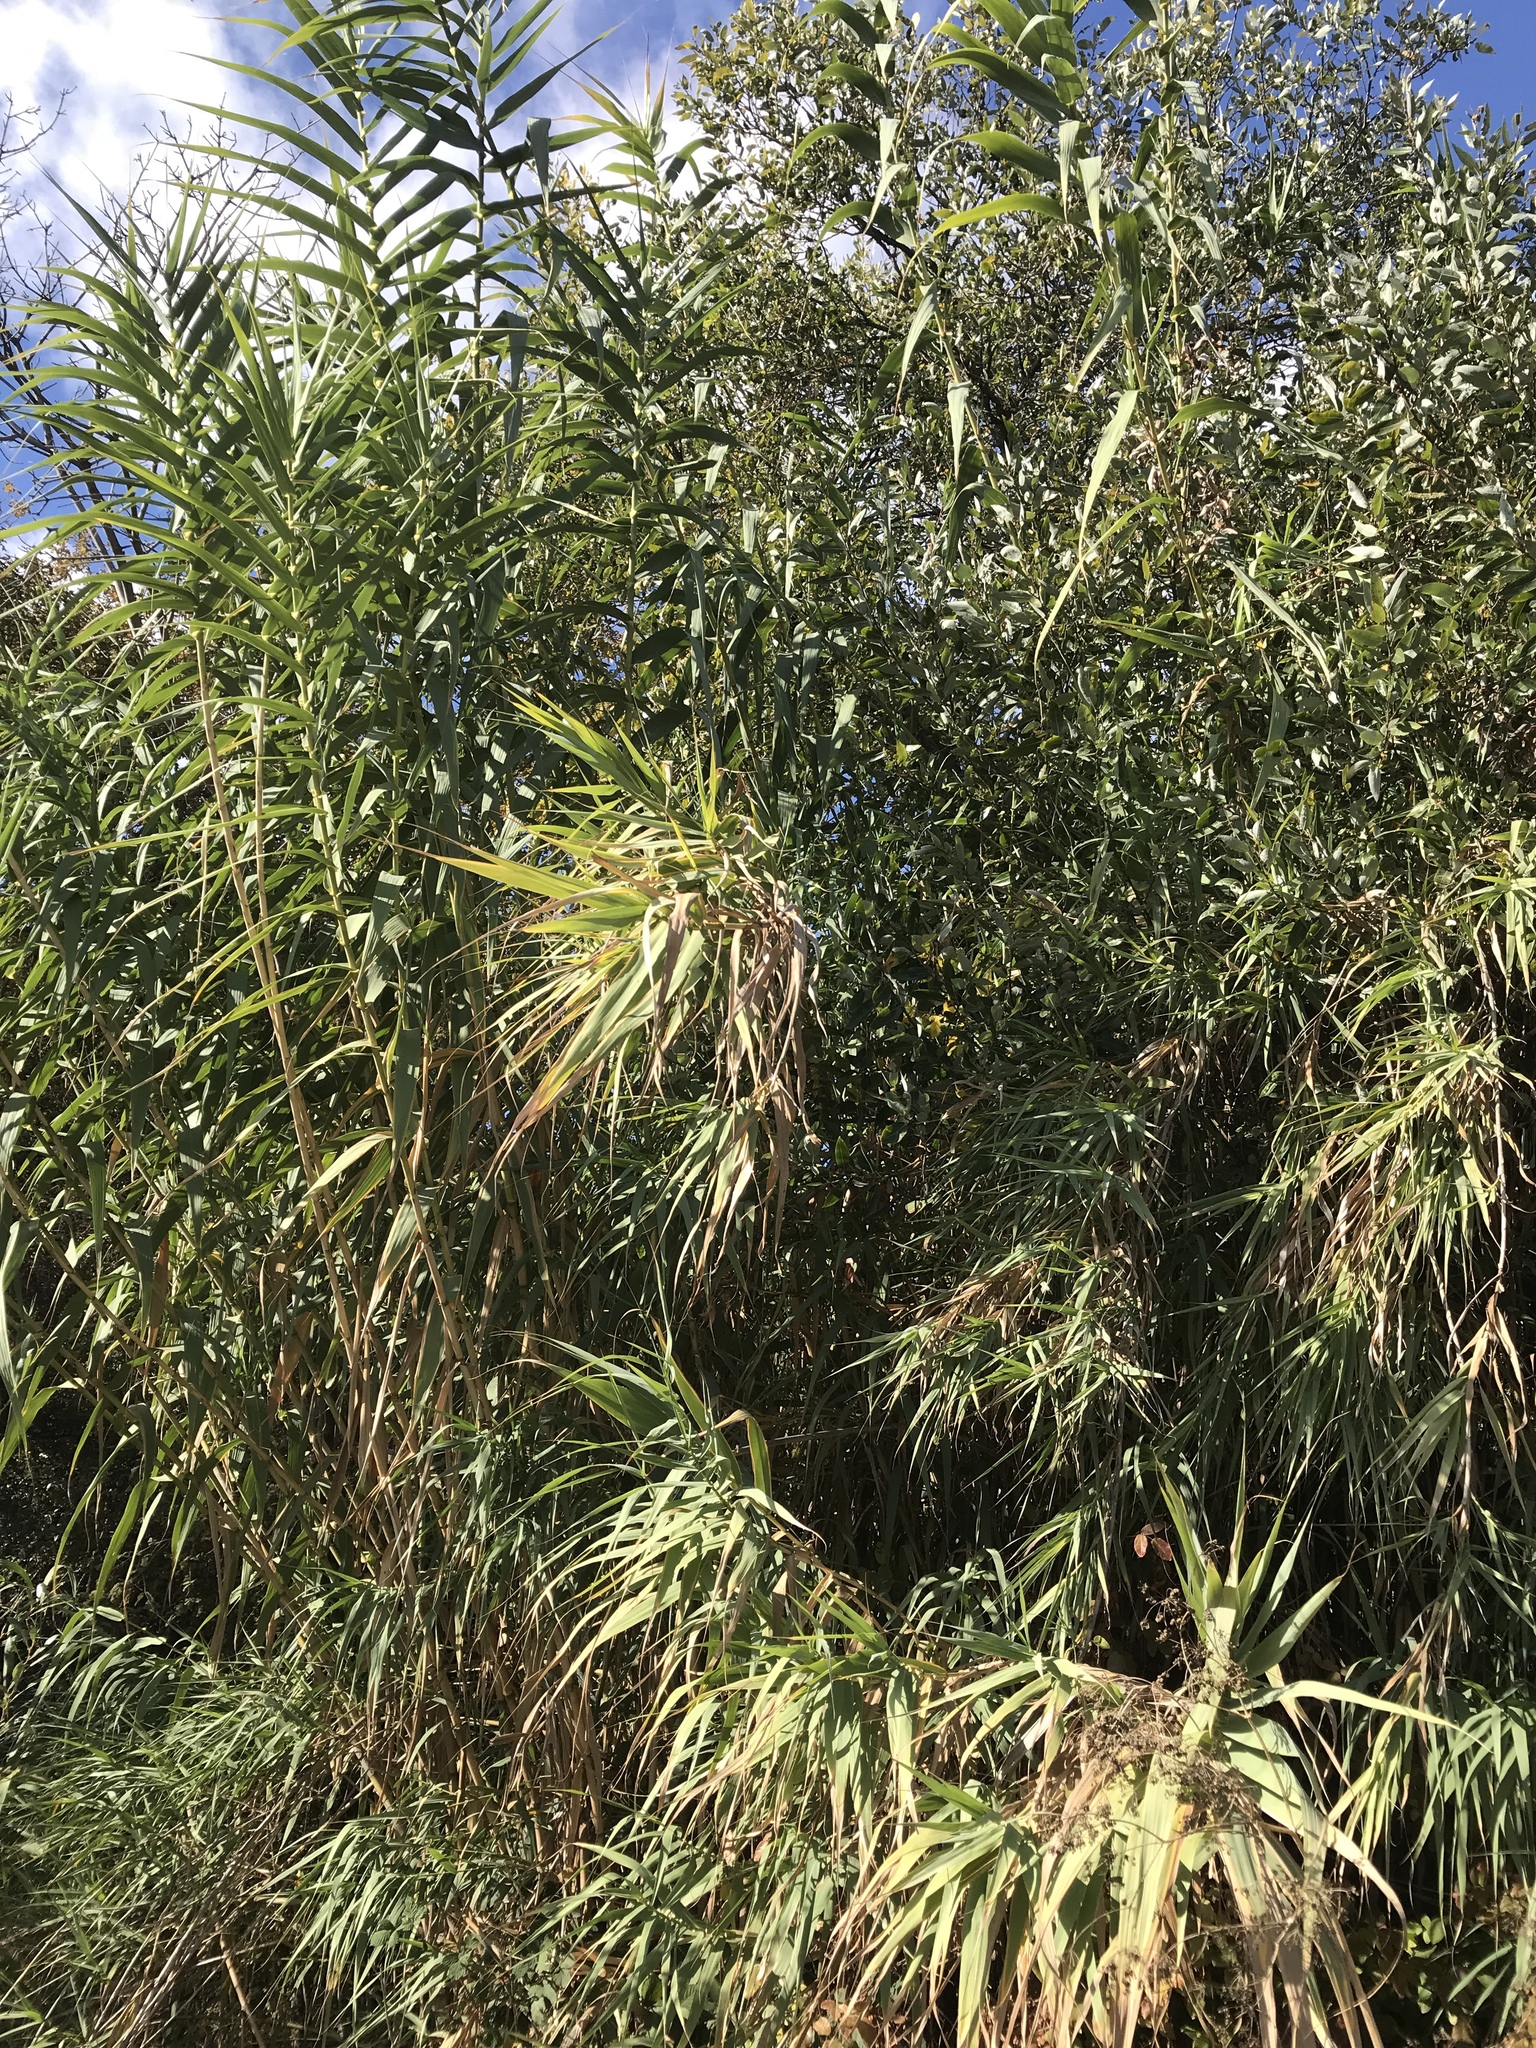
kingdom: Plantae
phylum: Tracheophyta
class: Liliopsida
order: Poales
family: Poaceae
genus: Arundo
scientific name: Arundo donax
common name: Giant reed
